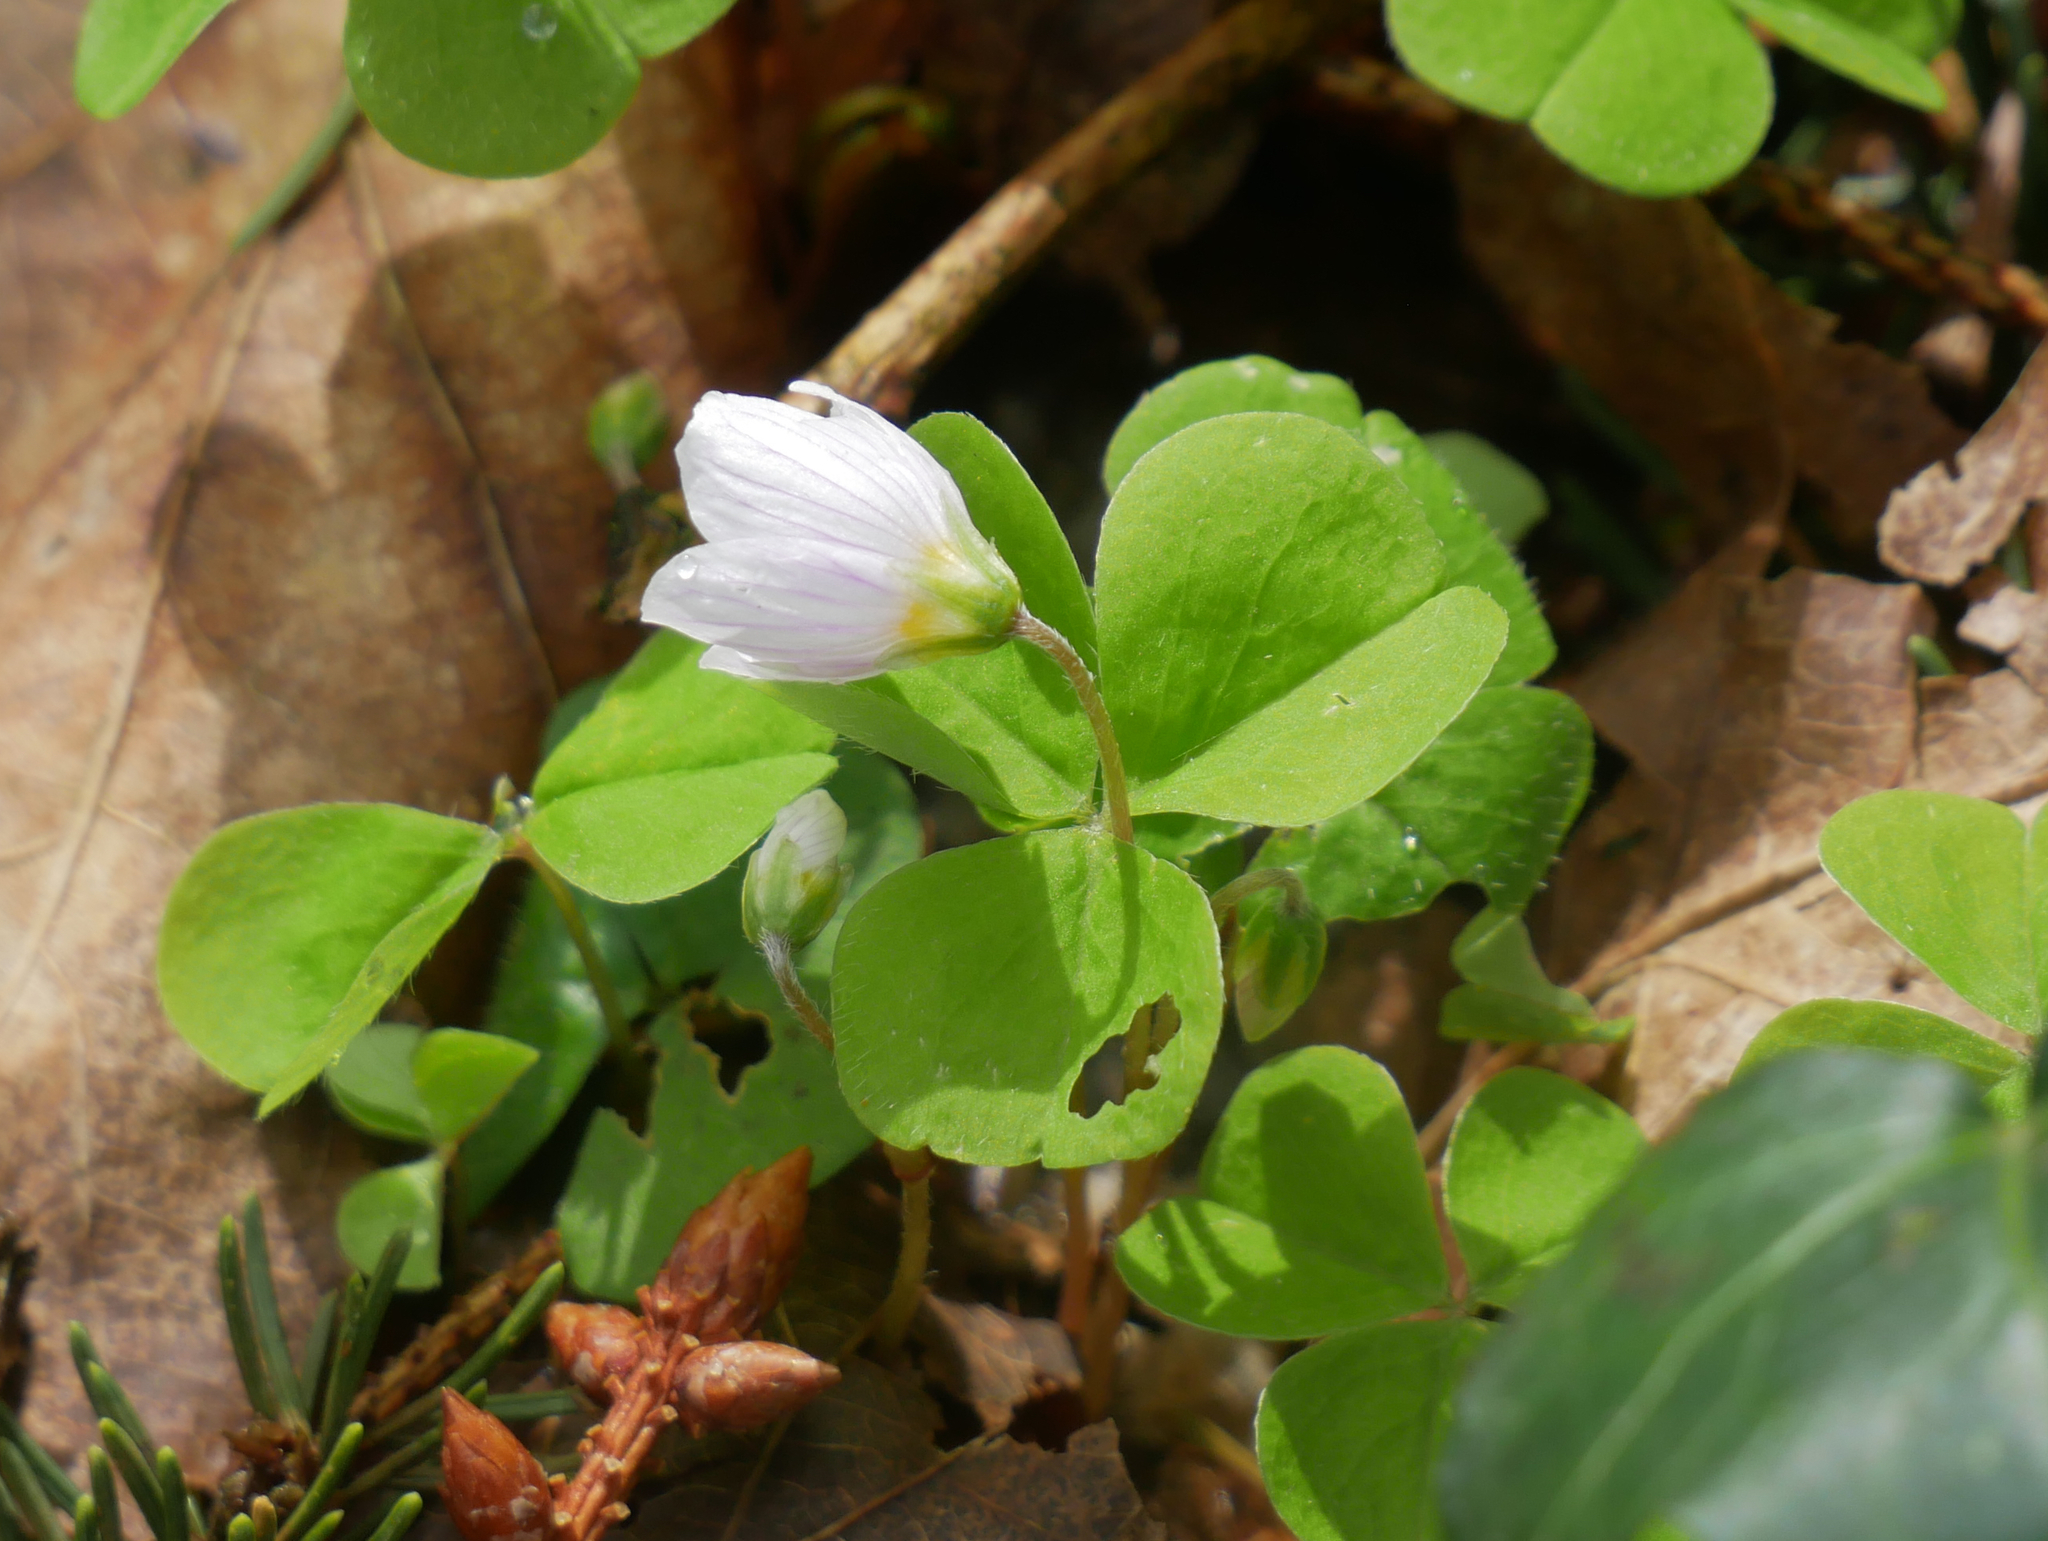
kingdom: Plantae
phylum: Tracheophyta
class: Magnoliopsida
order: Oxalidales
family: Oxalidaceae
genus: Oxalis
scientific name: Oxalis acetosella
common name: Wood-sorrel
